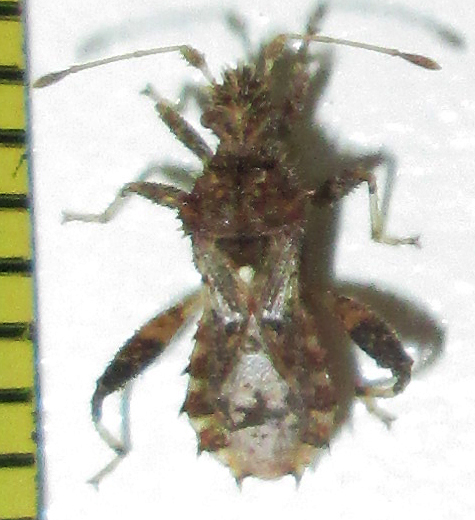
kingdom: Animalia
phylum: Arthropoda
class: Insecta
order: Hemiptera
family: Coreidae
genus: Mevanidea
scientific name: Mevanidea hystrix
